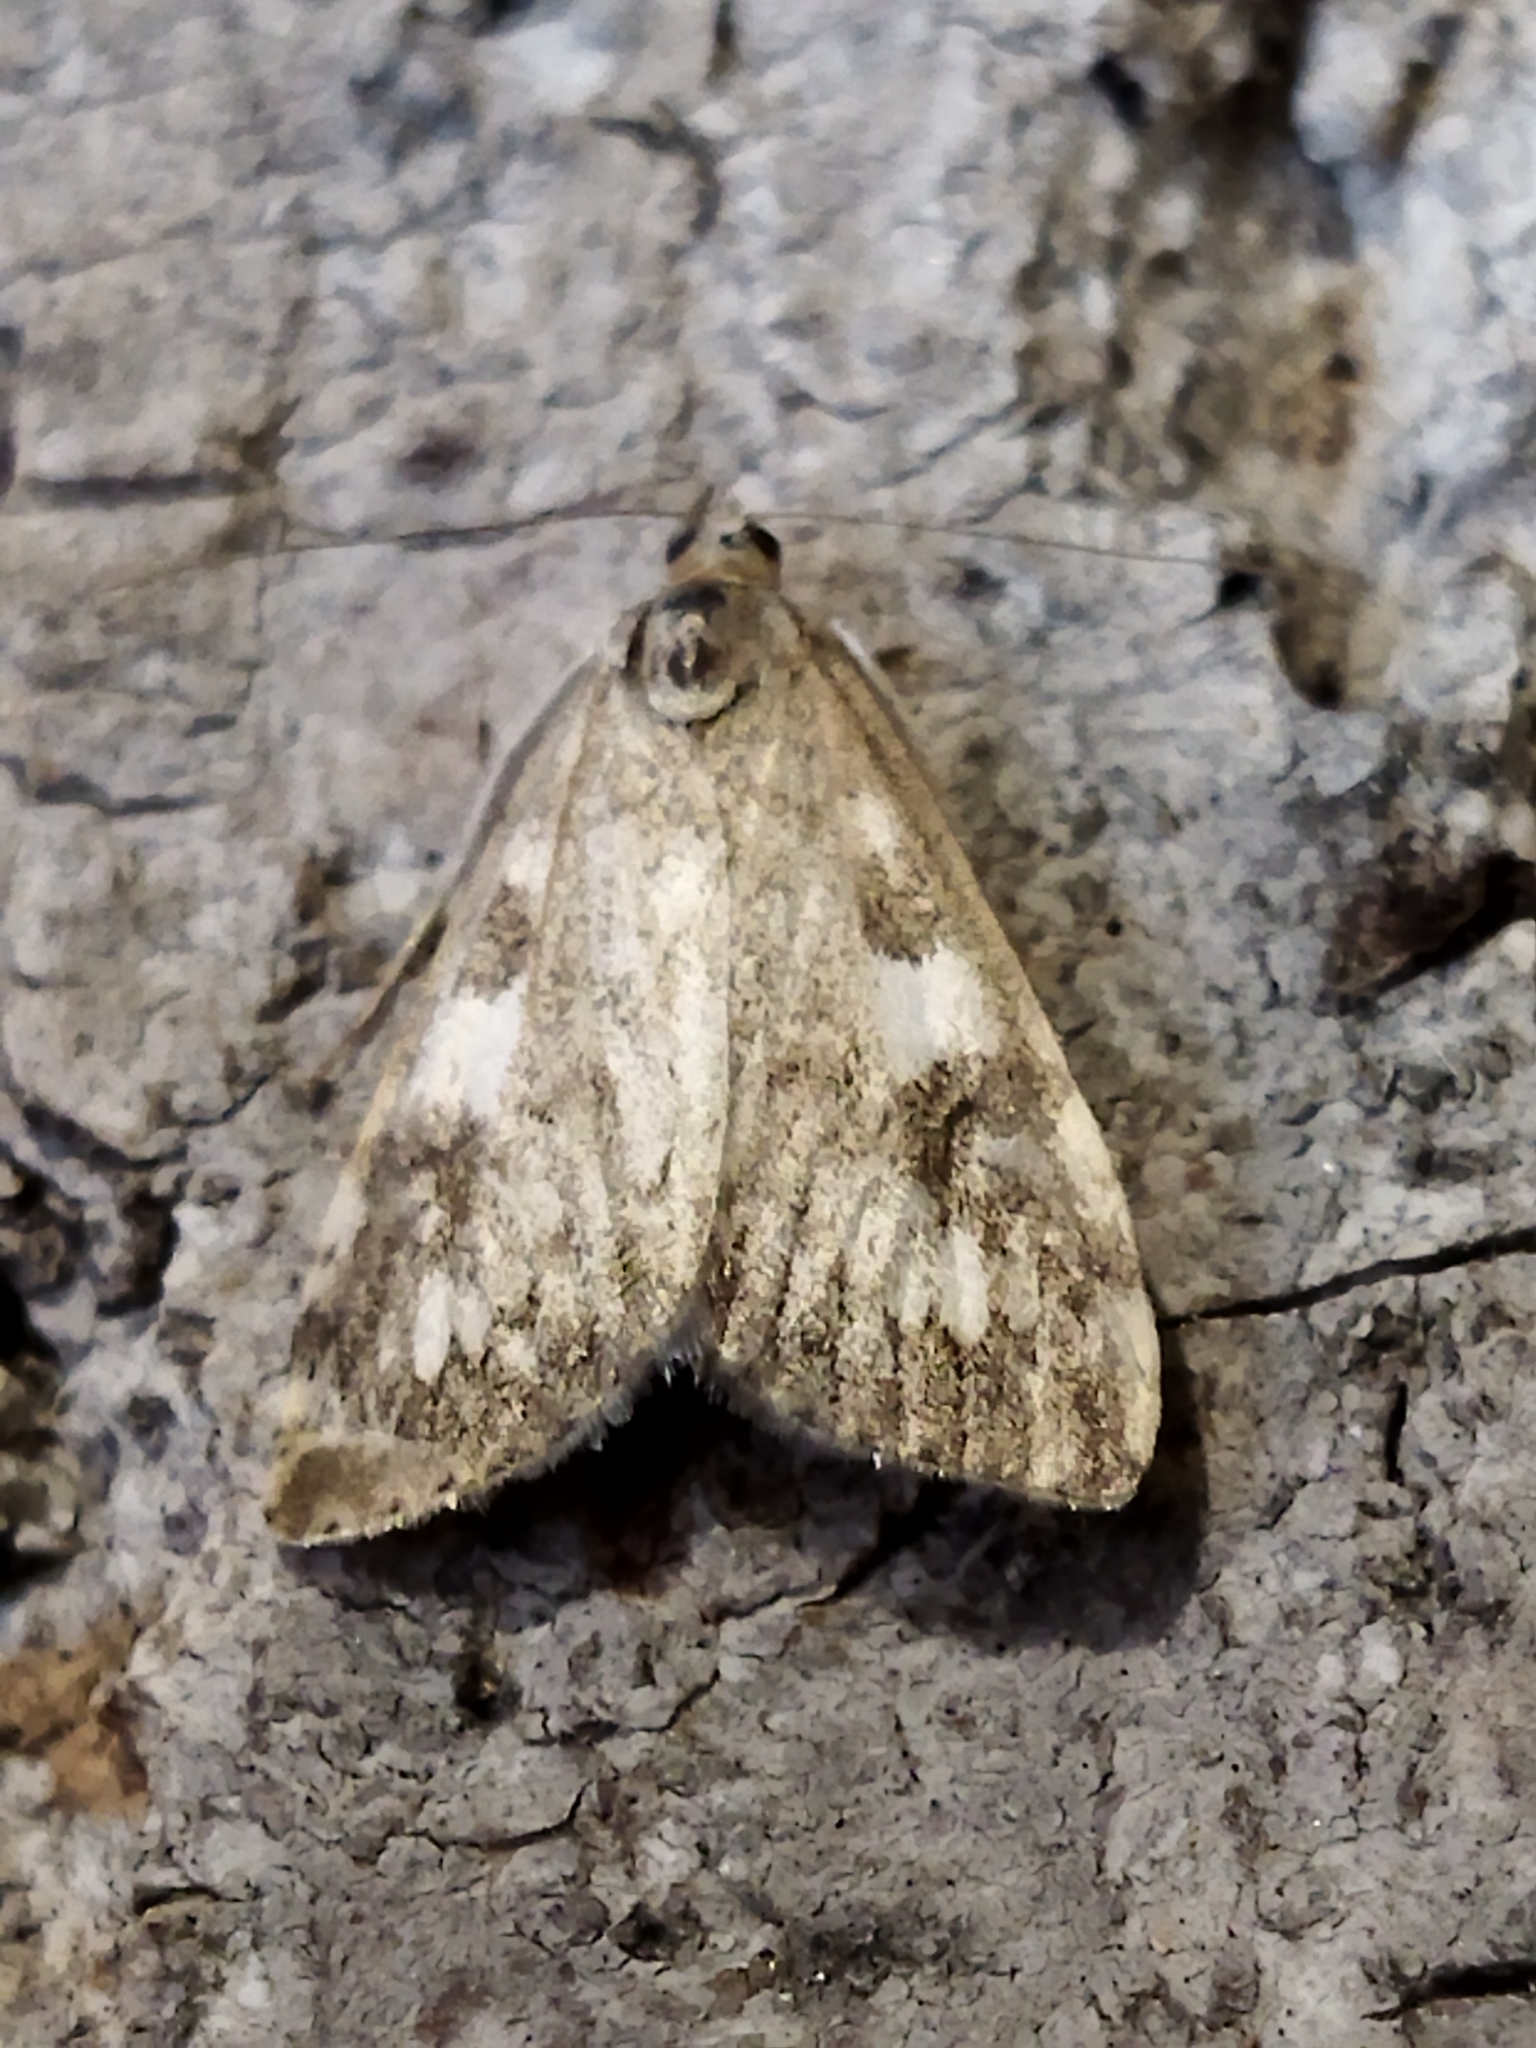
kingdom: Animalia
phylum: Arthropoda
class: Insecta
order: Lepidoptera
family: Crambidae
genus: Udea
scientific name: Udea olivalis
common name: Olive pearl
